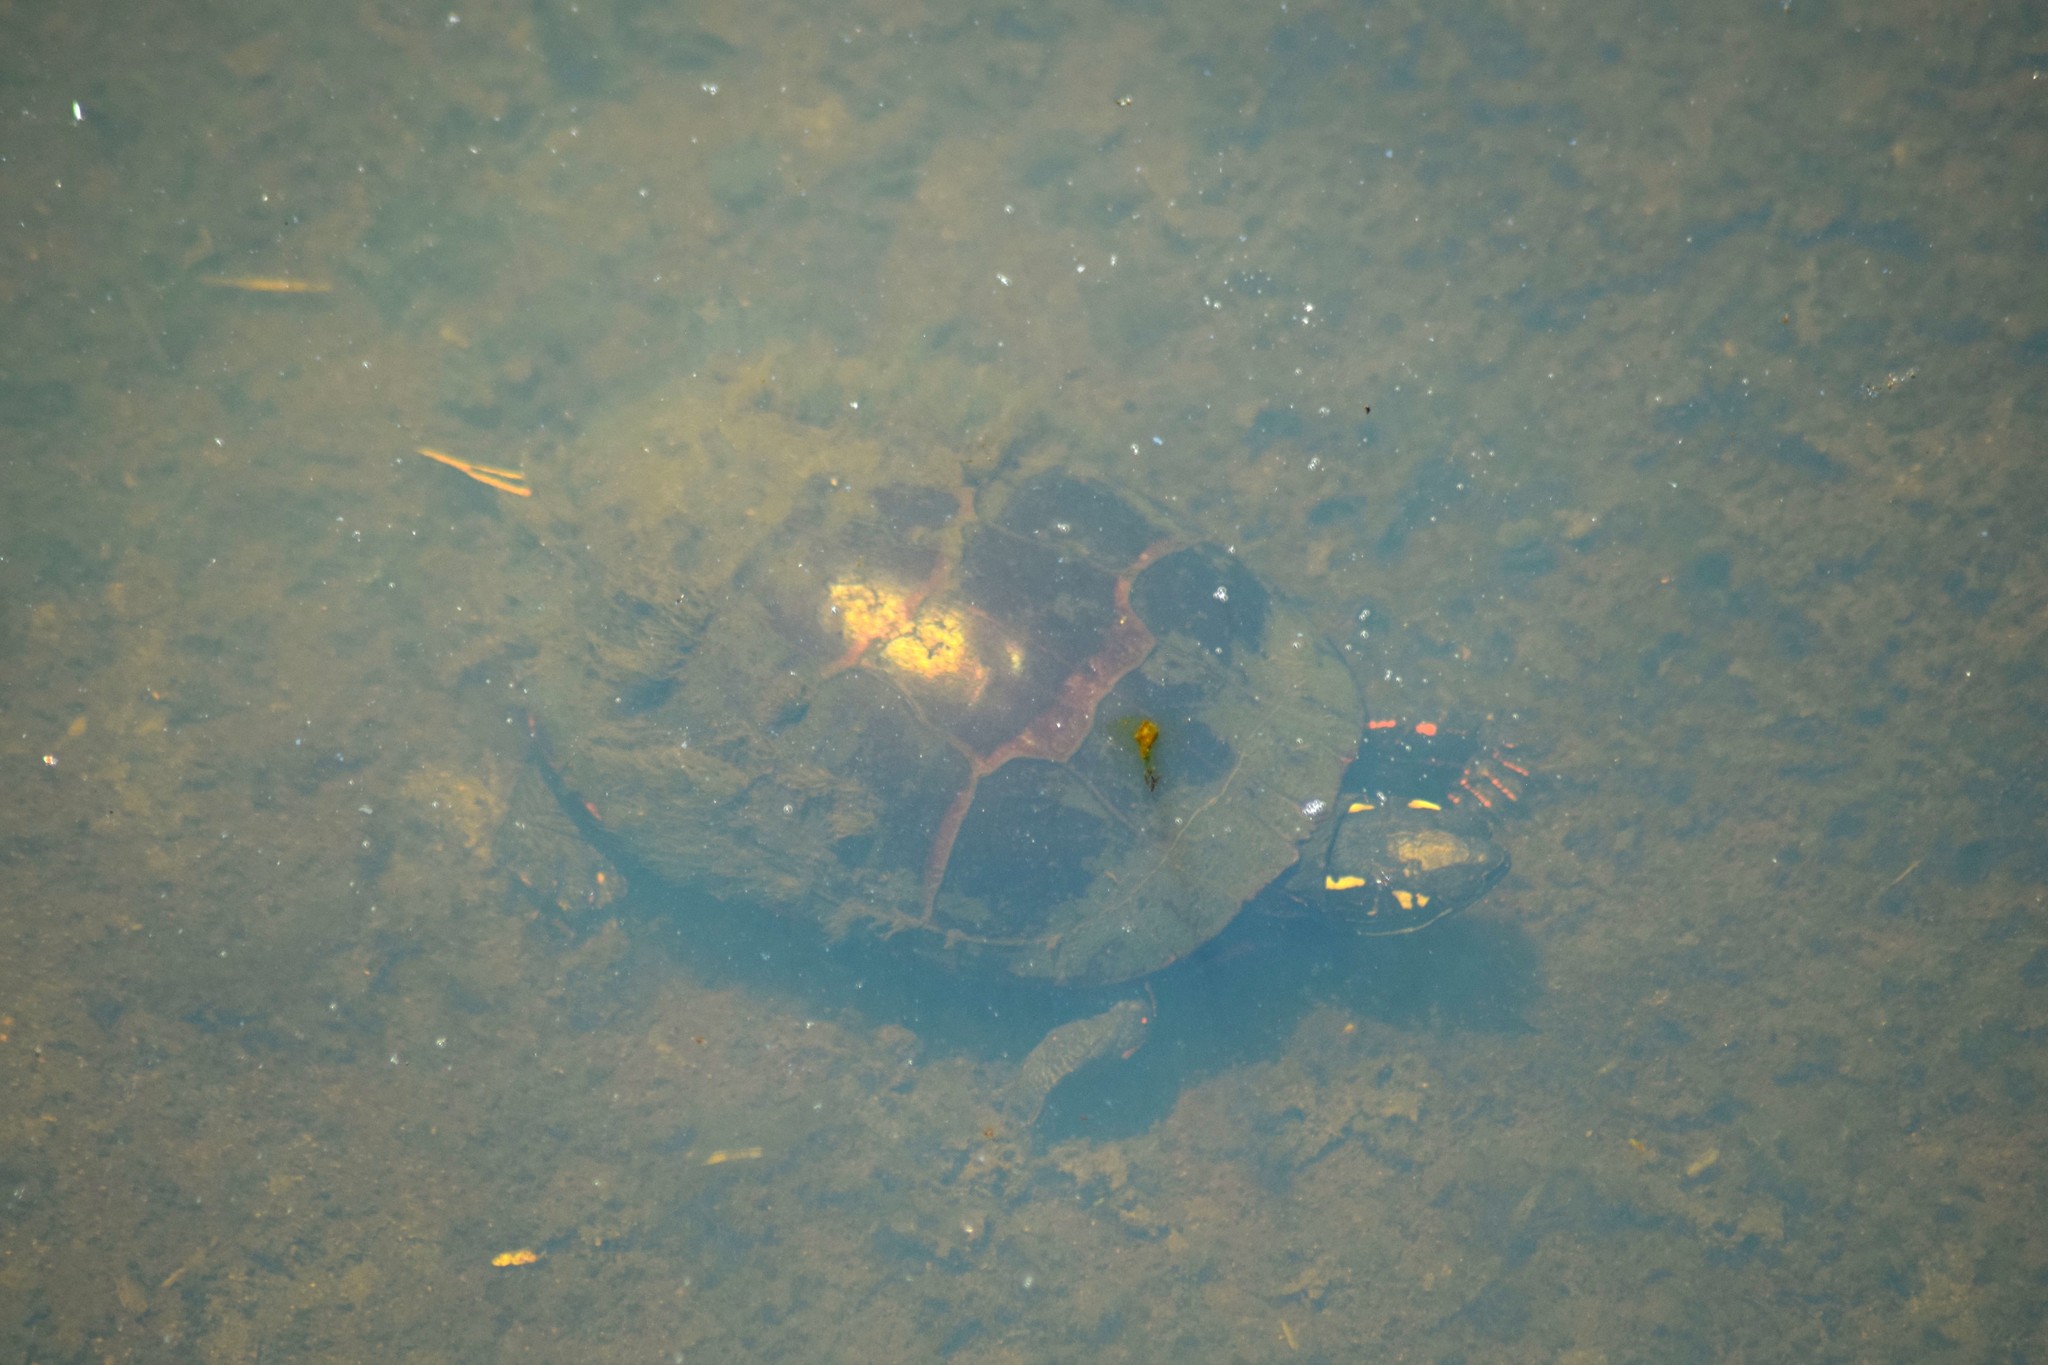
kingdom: Animalia
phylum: Chordata
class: Testudines
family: Emydidae
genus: Chrysemys
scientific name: Chrysemys picta
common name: Painted turtle
